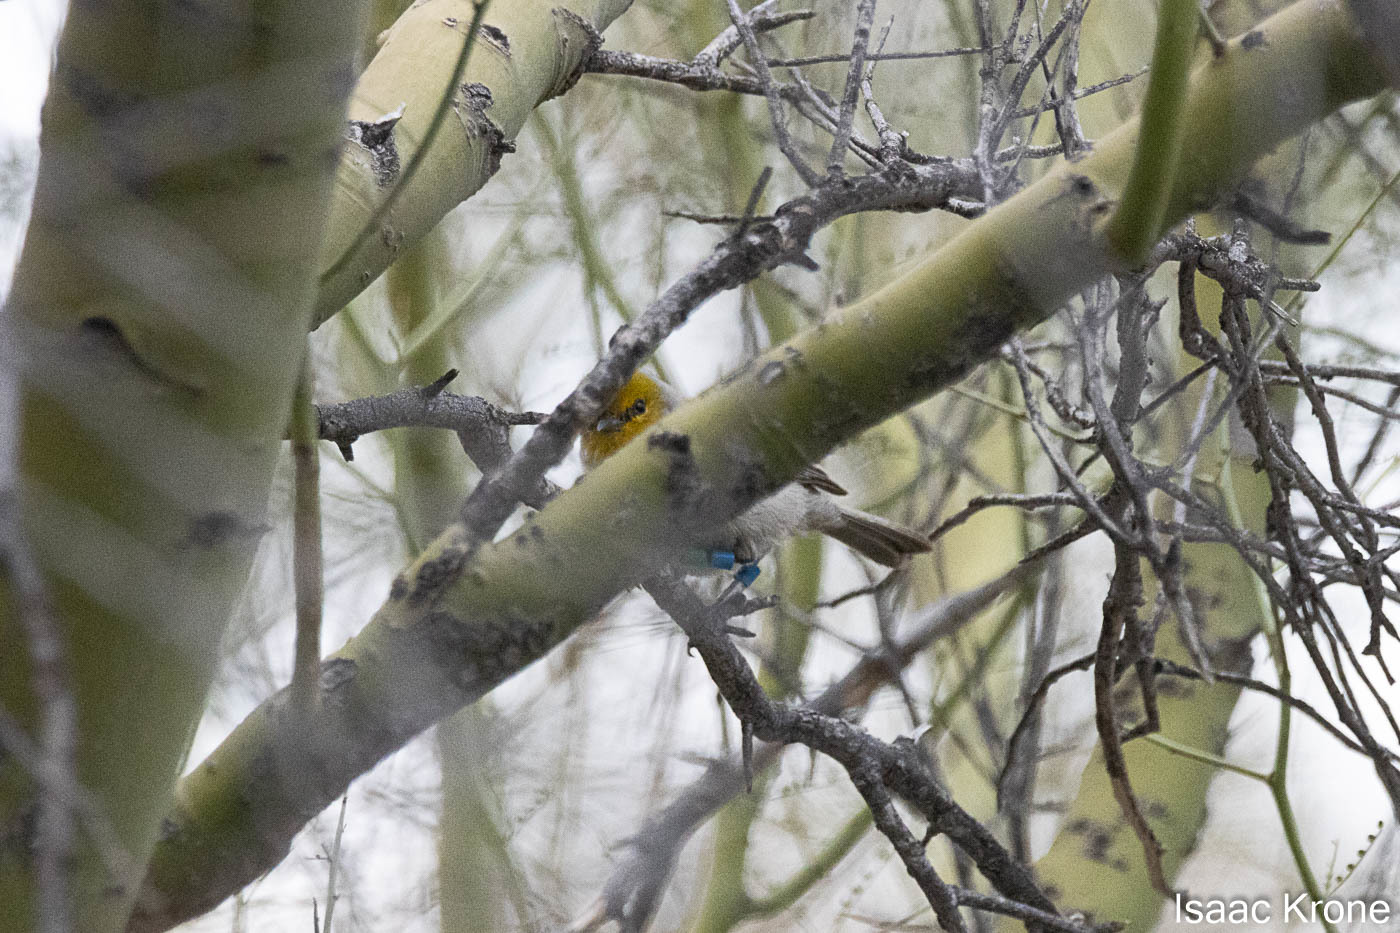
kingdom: Animalia
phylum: Chordata
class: Aves
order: Passeriformes
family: Remizidae
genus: Auriparus
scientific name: Auriparus flaviceps
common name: Verdin
